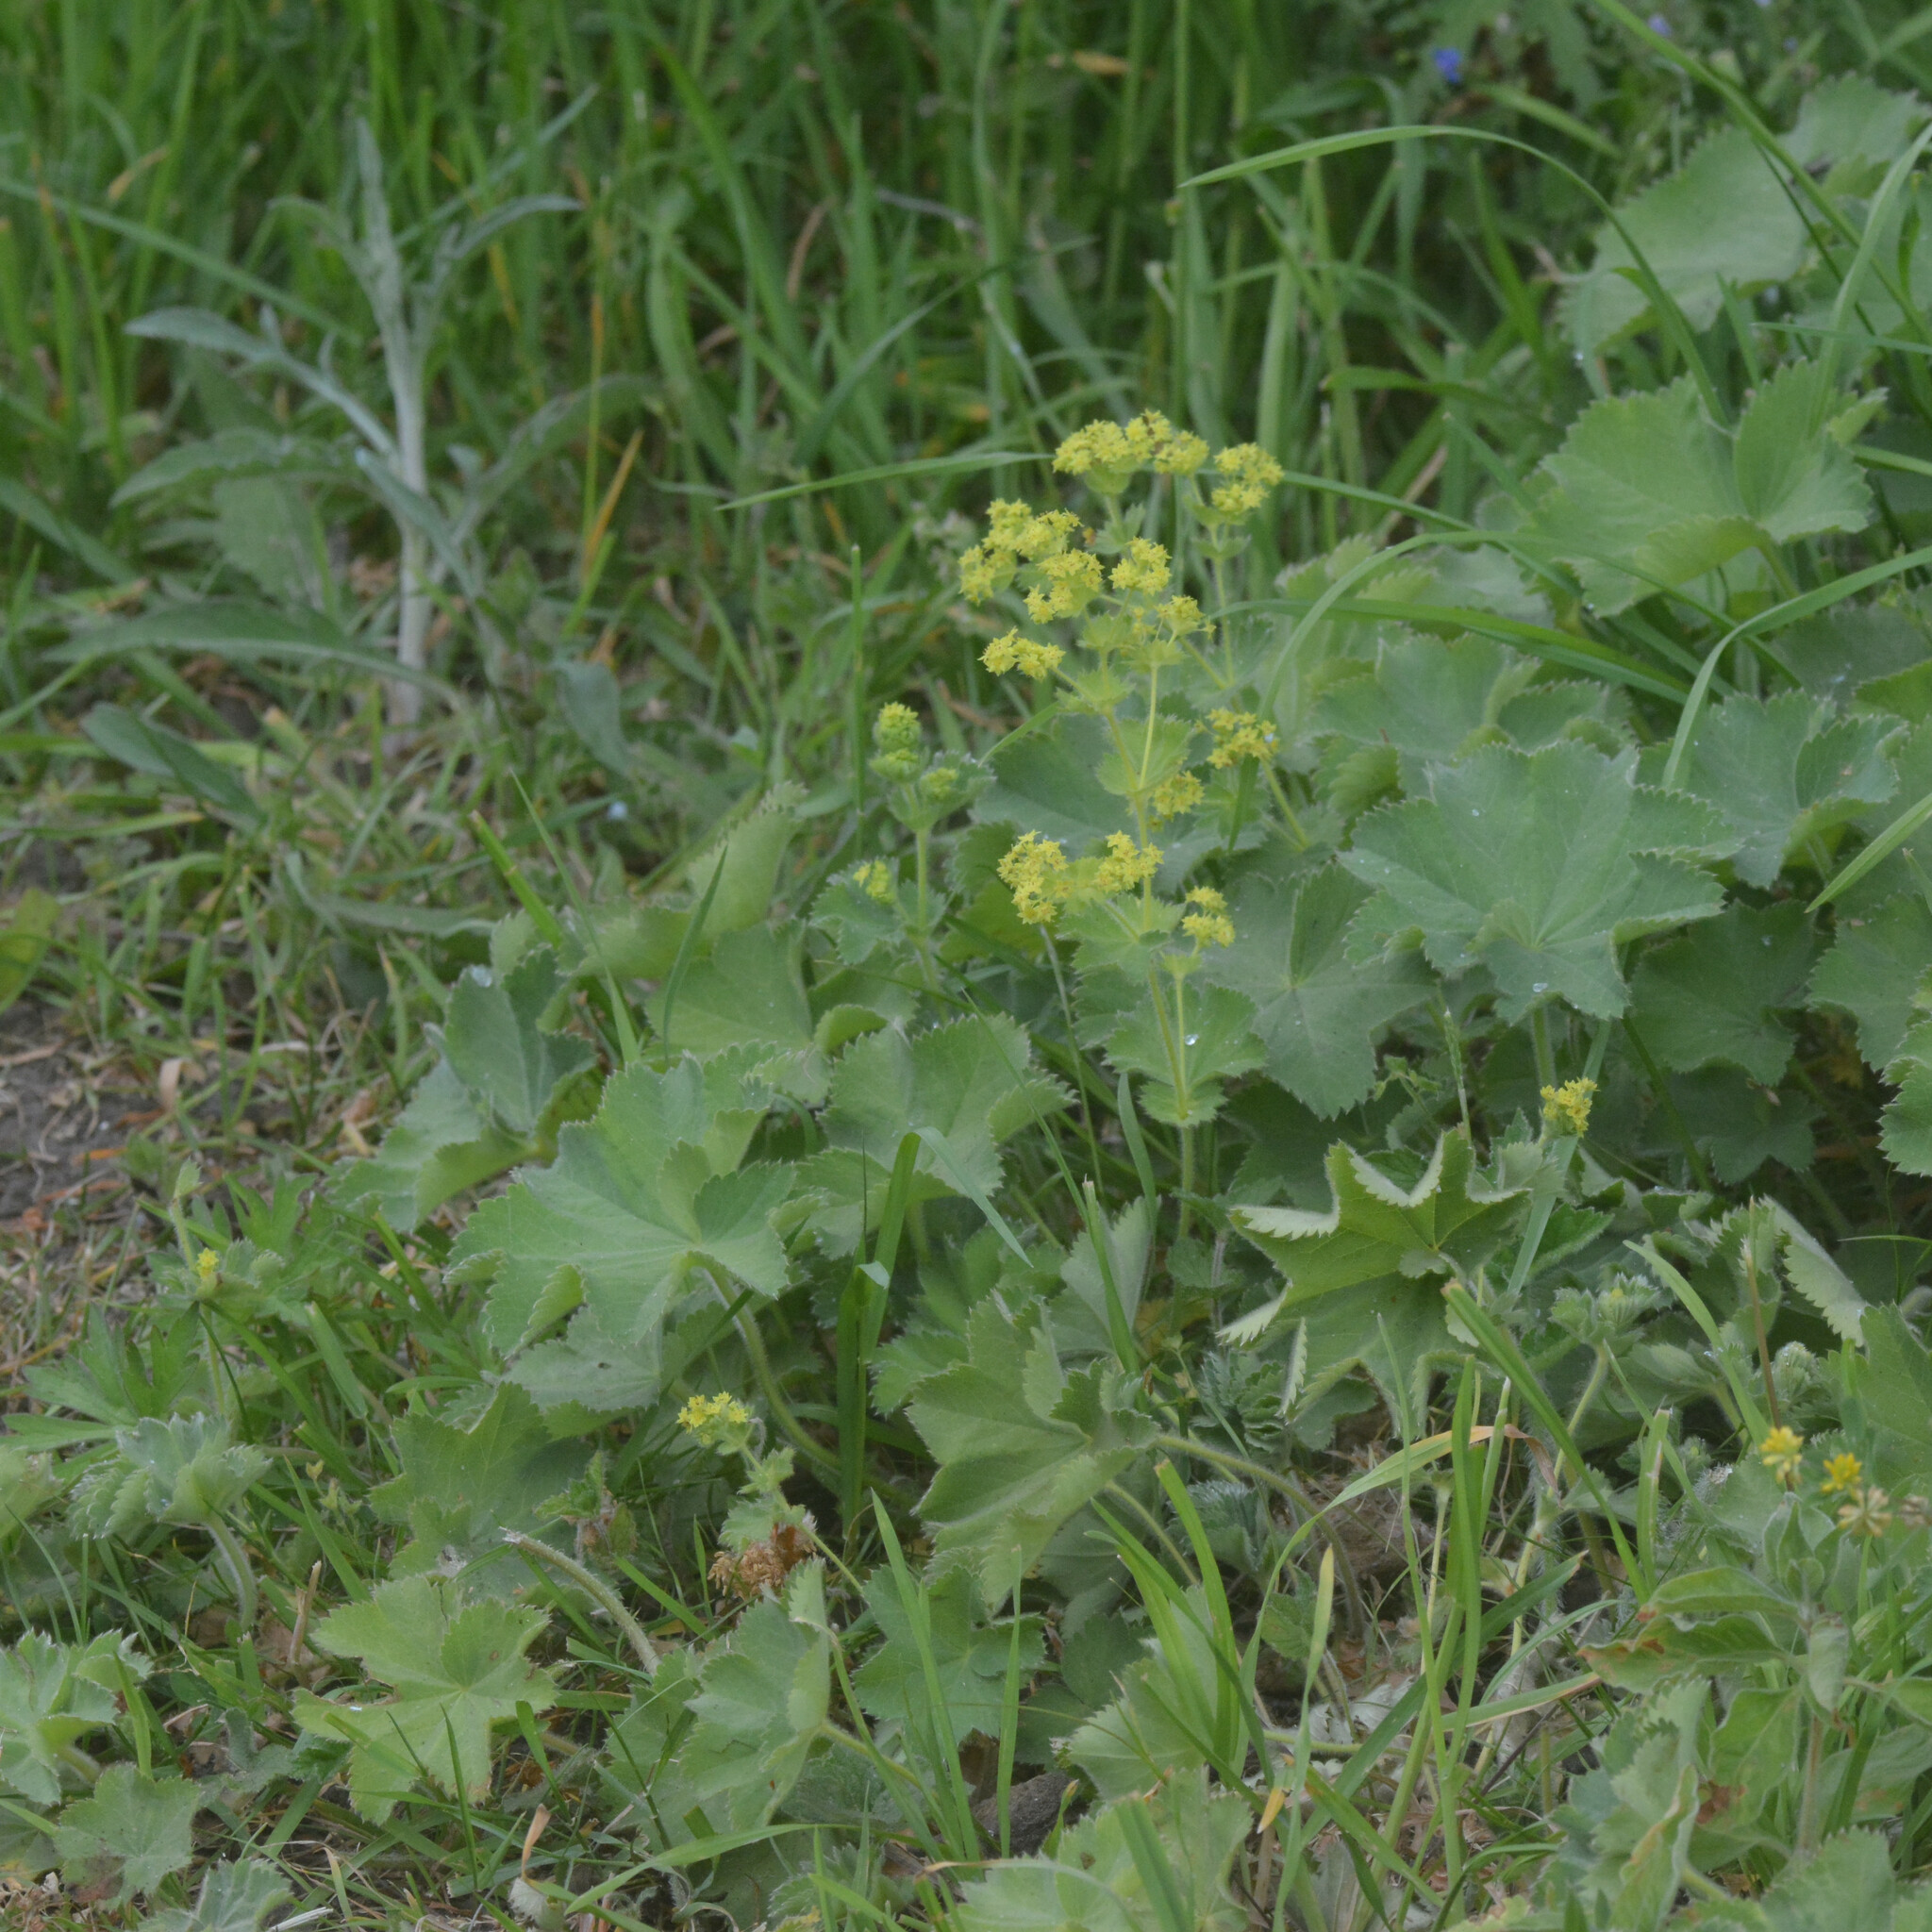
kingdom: Plantae
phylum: Tracheophyta
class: Magnoliopsida
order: Rosales
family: Rosaceae
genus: Alchemilla
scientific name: Alchemilla mollis
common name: Lady's-mantle
